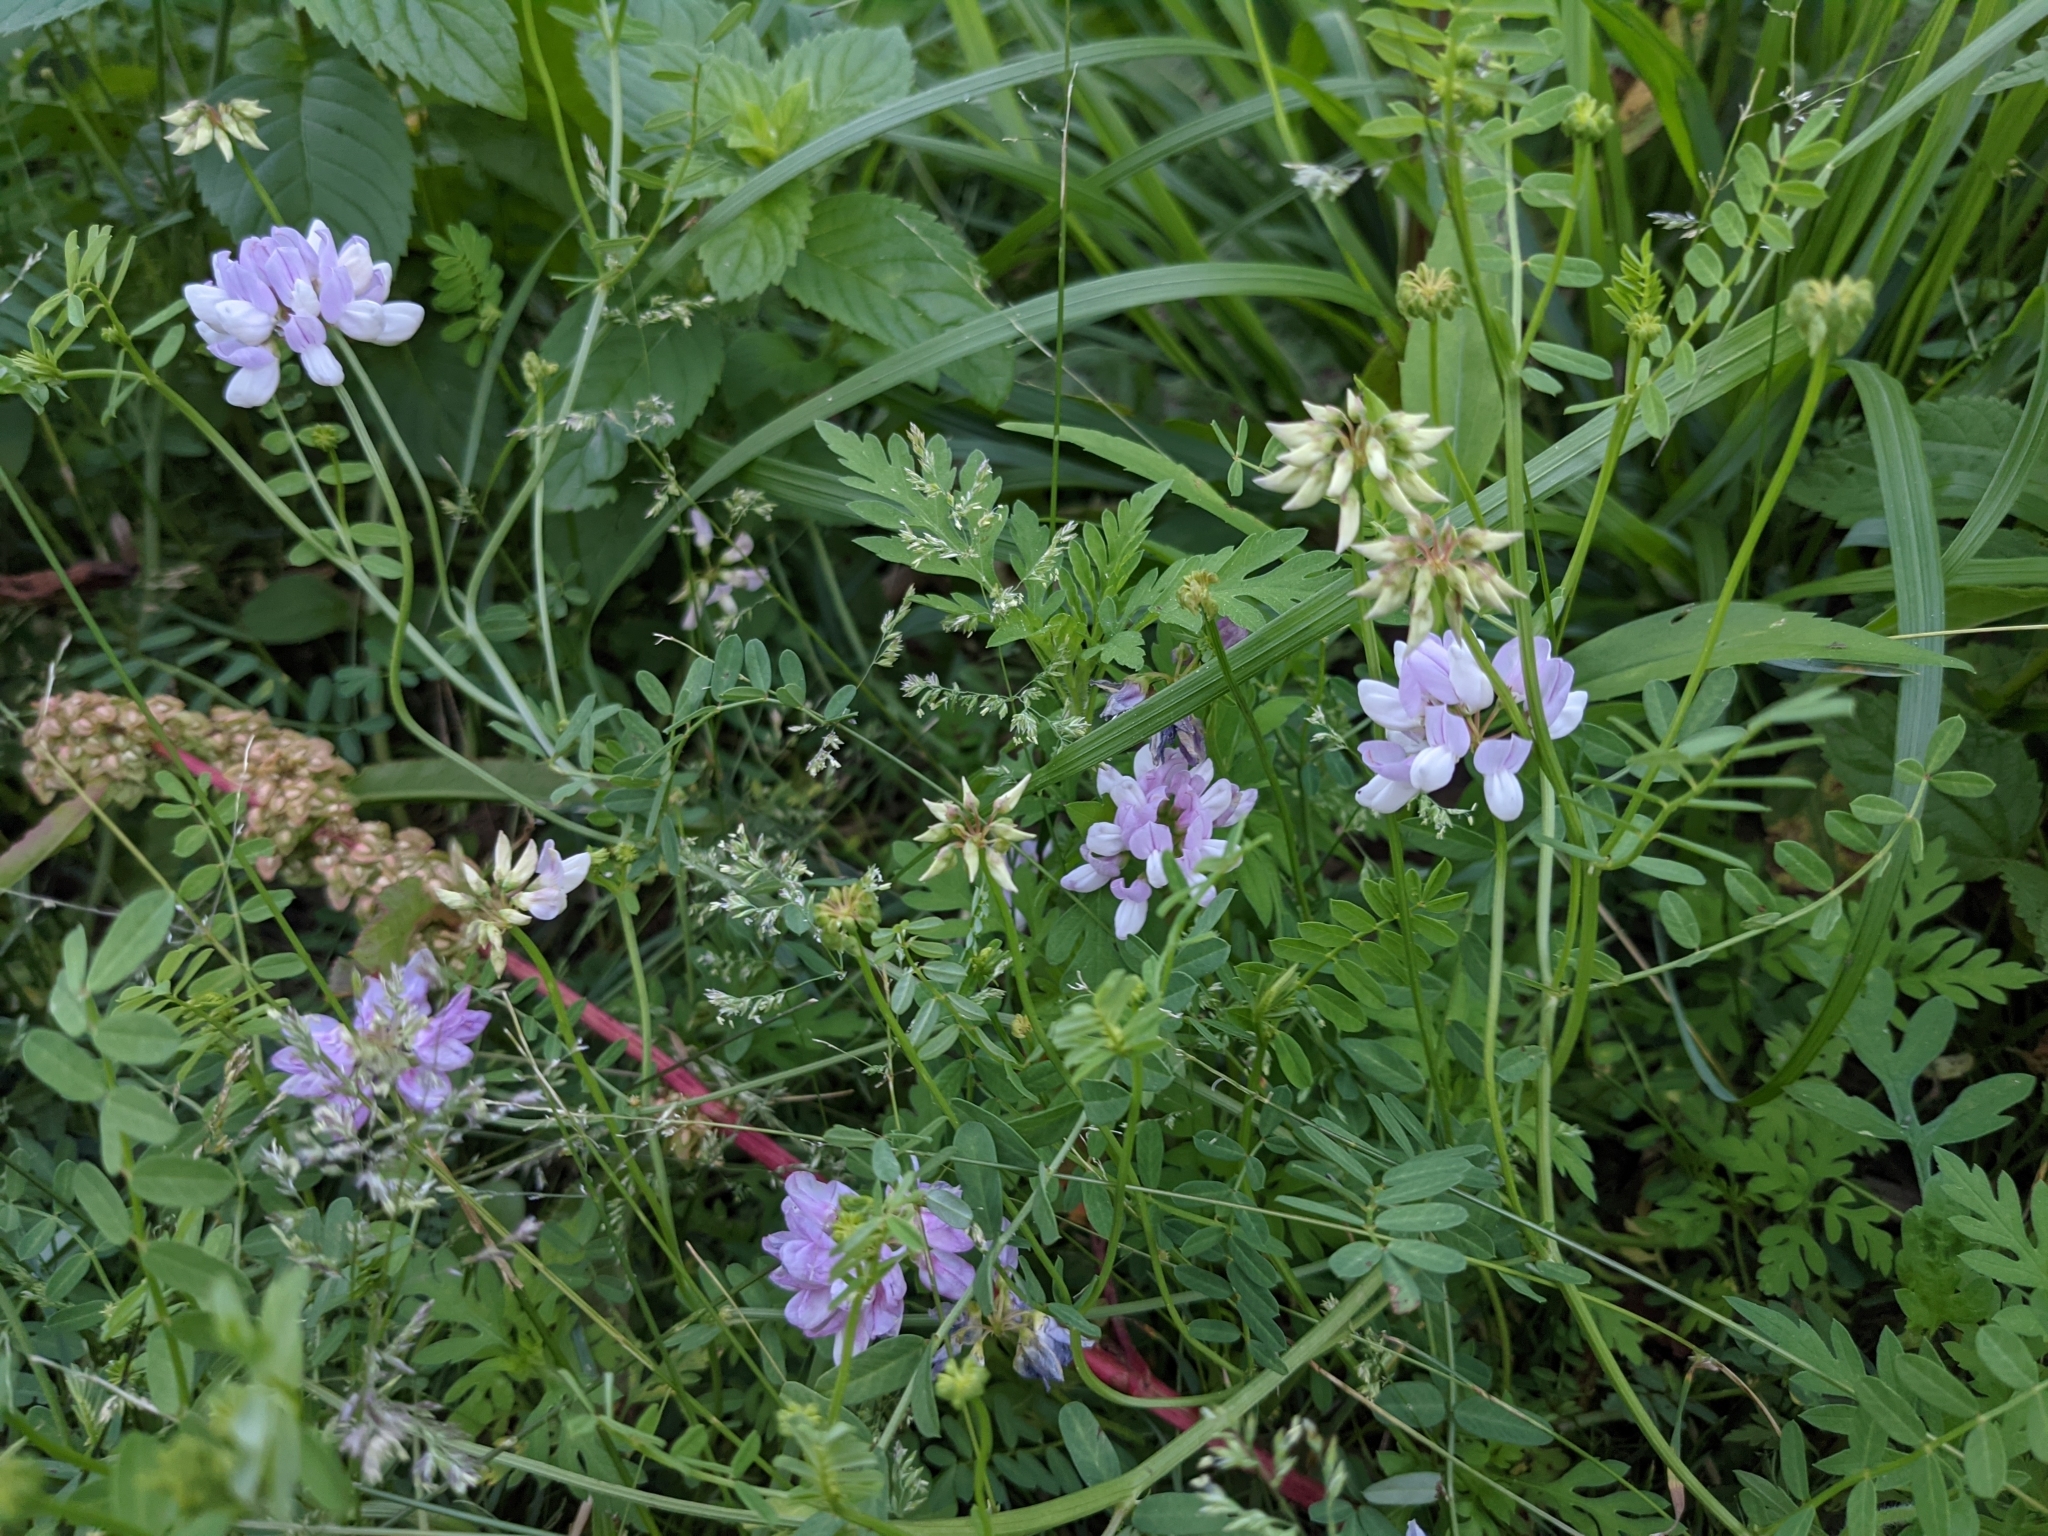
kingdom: Plantae
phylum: Tracheophyta
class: Magnoliopsida
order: Fabales
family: Fabaceae
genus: Coronilla
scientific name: Coronilla varia
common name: Crownvetch
